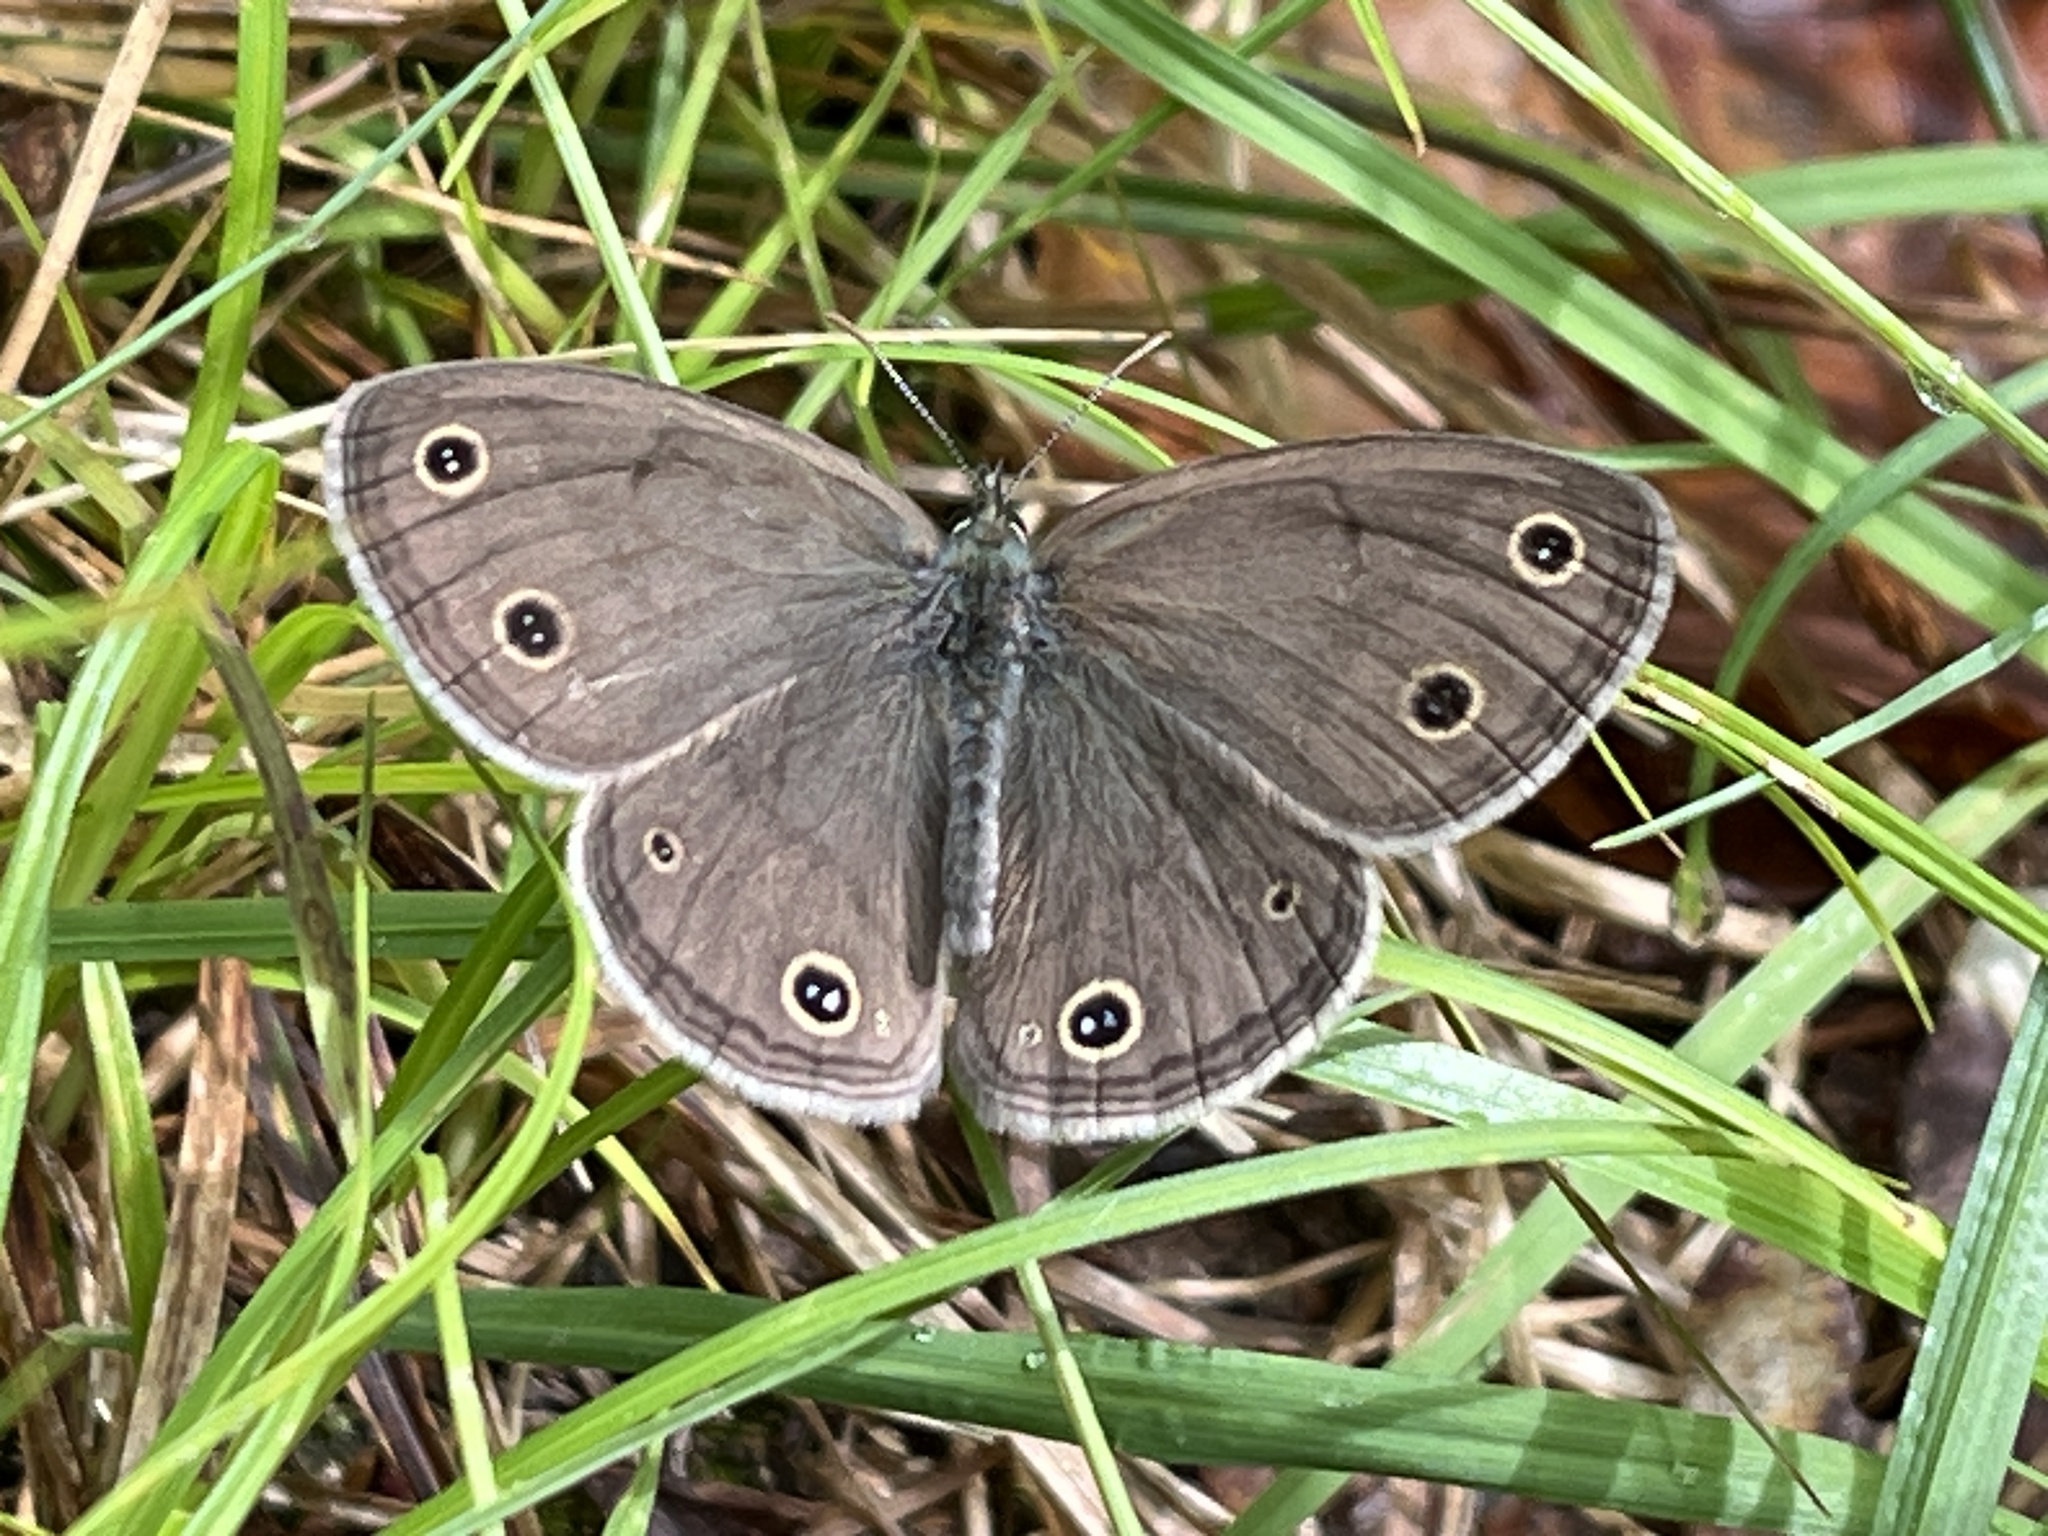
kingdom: Animalia
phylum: Arthropoda
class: Insecta
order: Lepidoptera
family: Nymphalidae
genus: Euptychia
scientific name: Euptychia cymela
